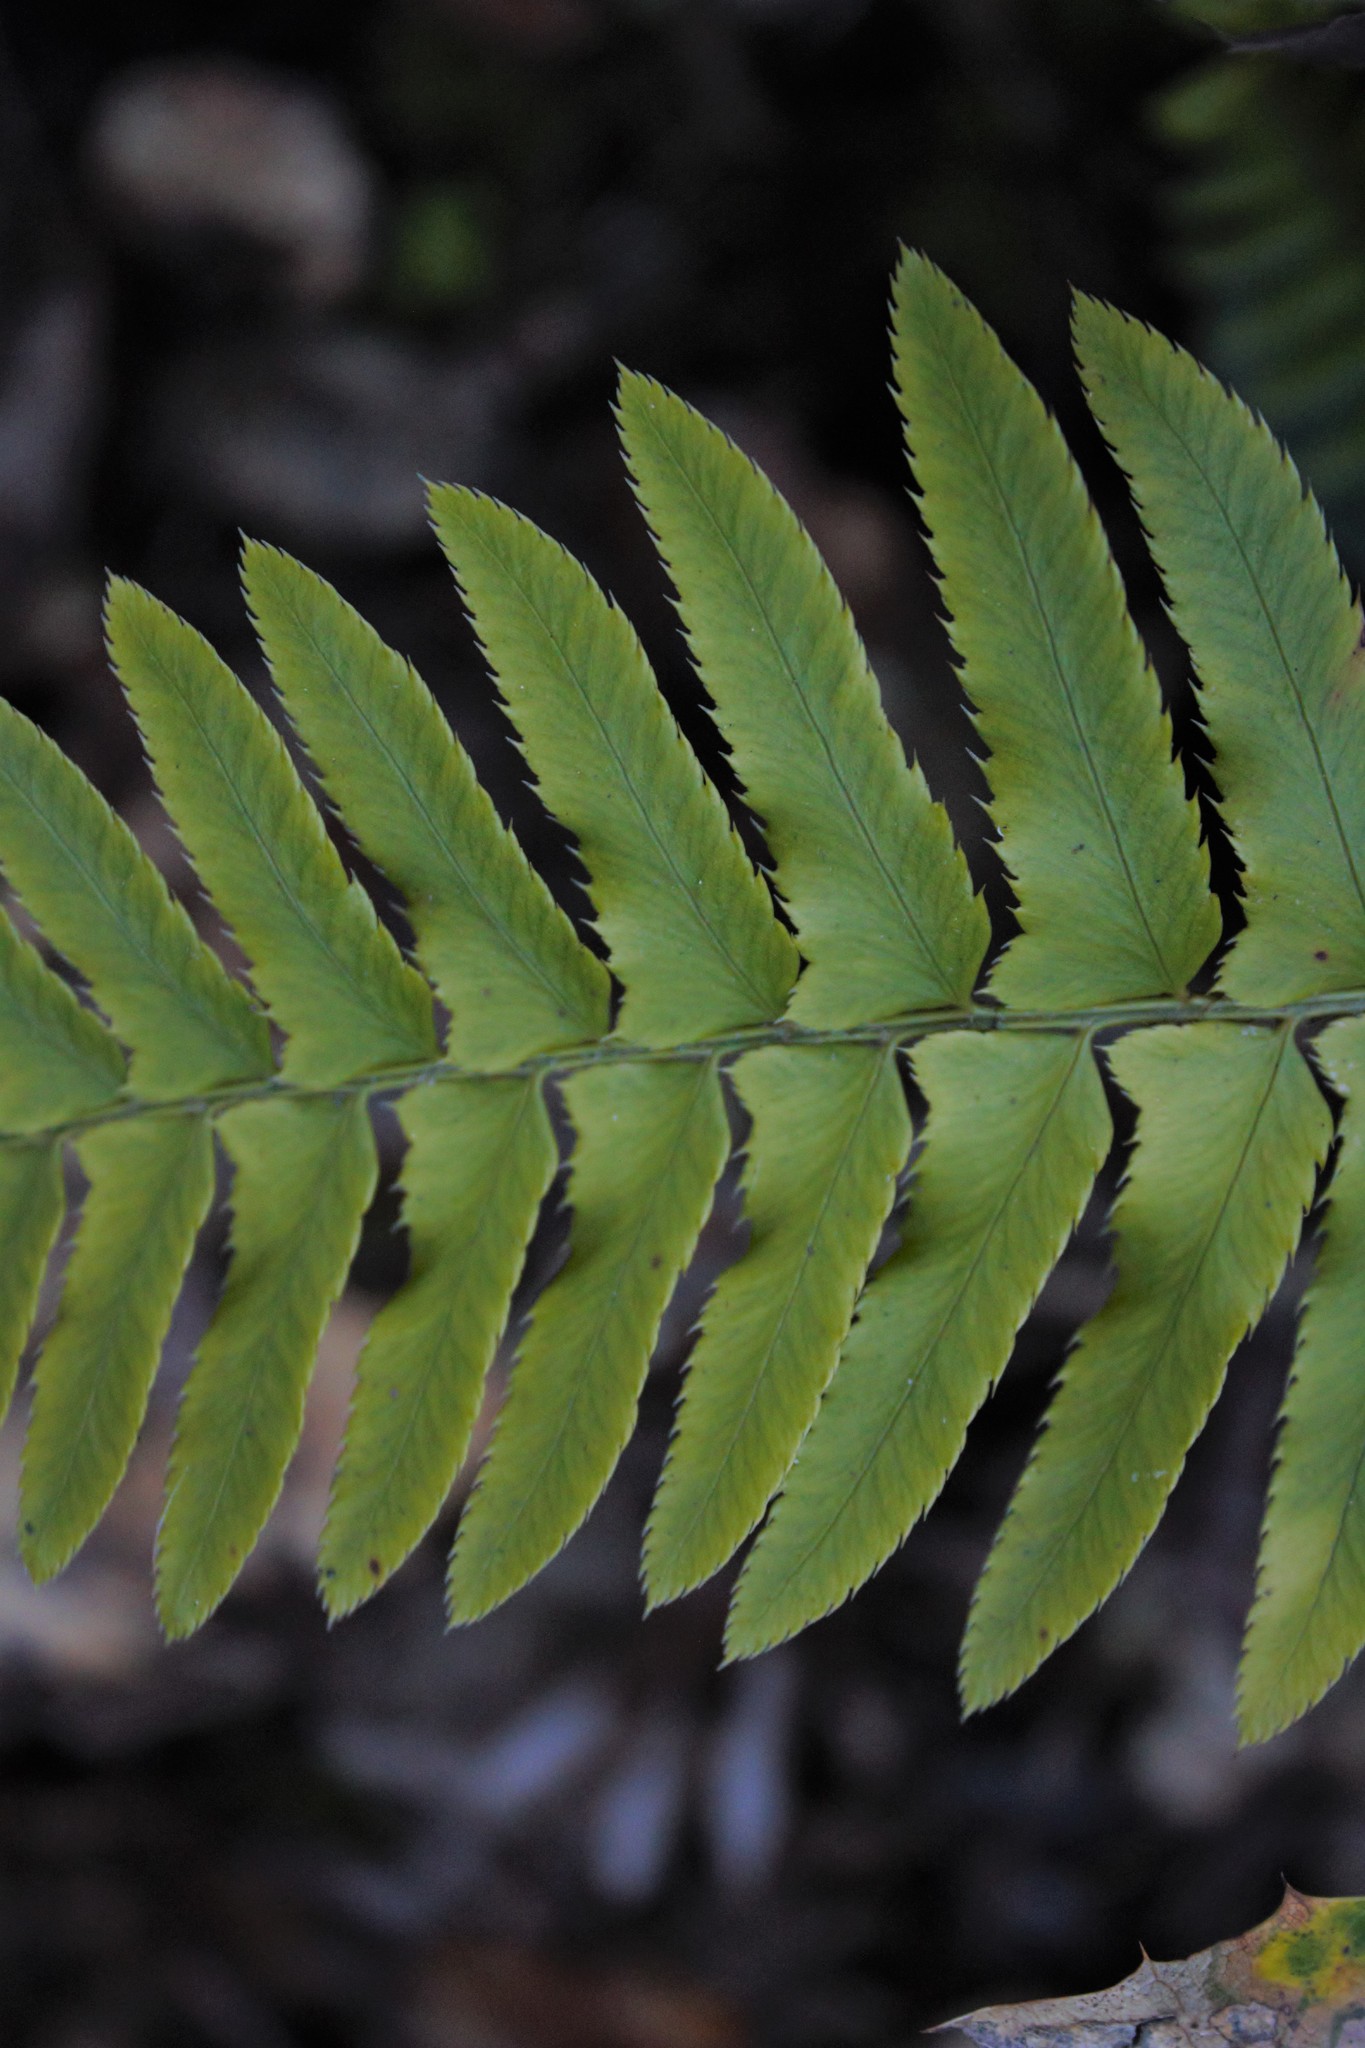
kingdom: Plantae
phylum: Tracheophyta
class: Polypodiopsida
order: Polypodiales
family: Dryopteridaceae
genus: Polystichum
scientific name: Polystichum munitum
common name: Western sword-fern
